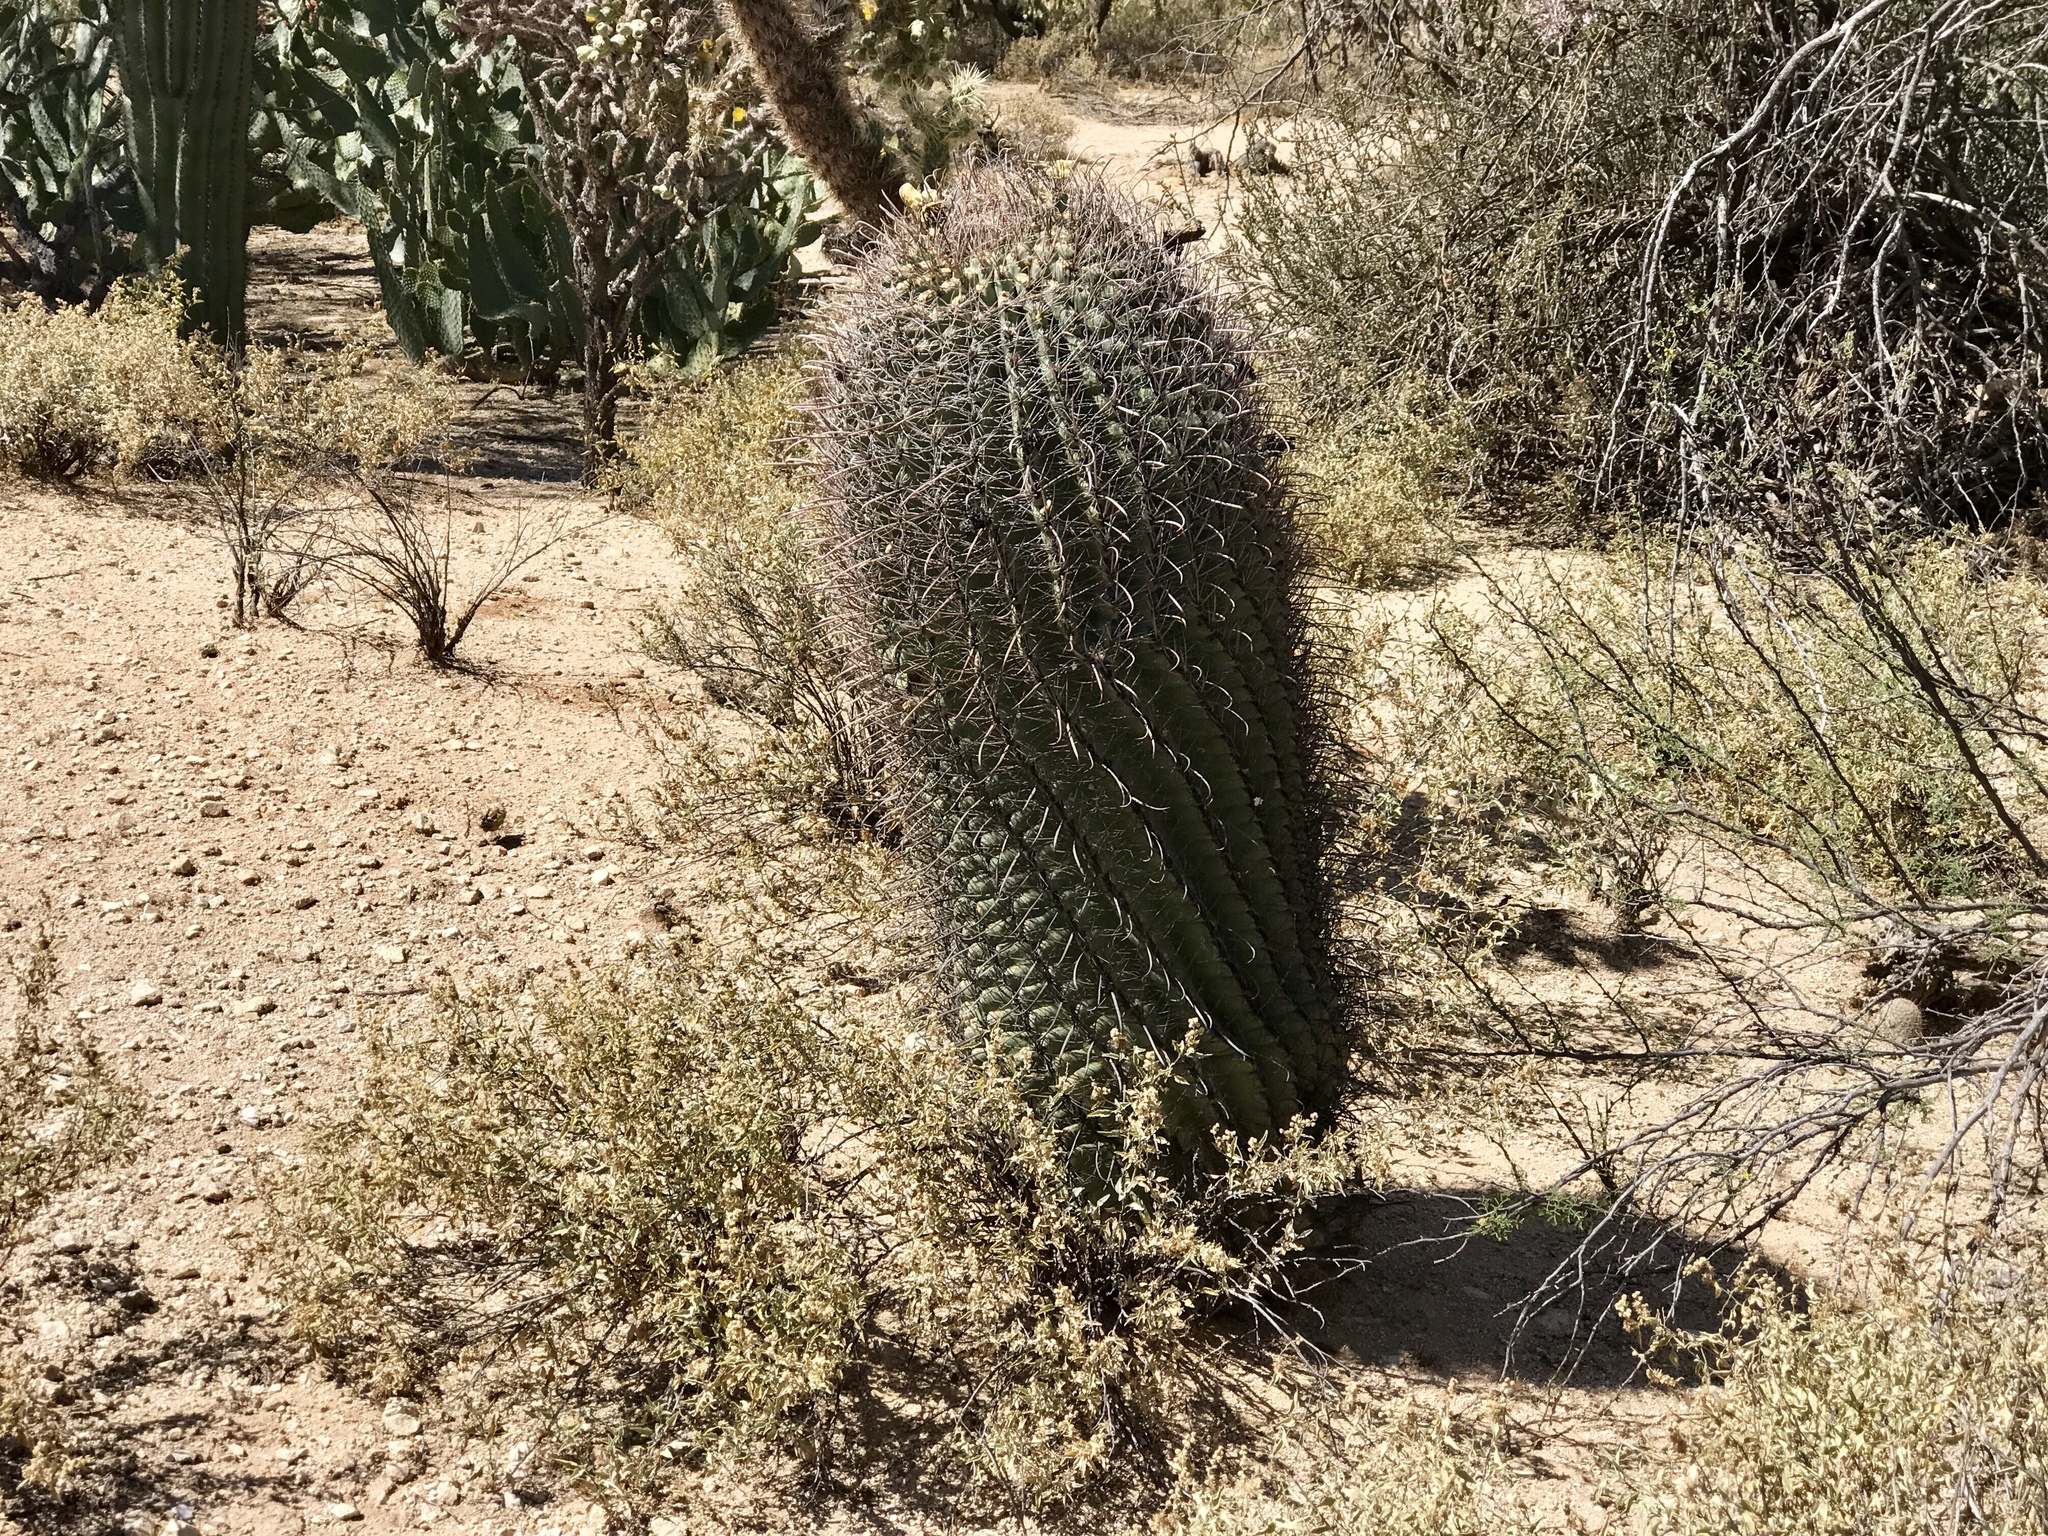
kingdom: Plantae
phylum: Tracheophyta
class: Magnoliopsida
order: Caryophyllales
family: Cactaceae
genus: Ferocactus
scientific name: Ferocactus wislizeni
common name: Candy barrel cactus
